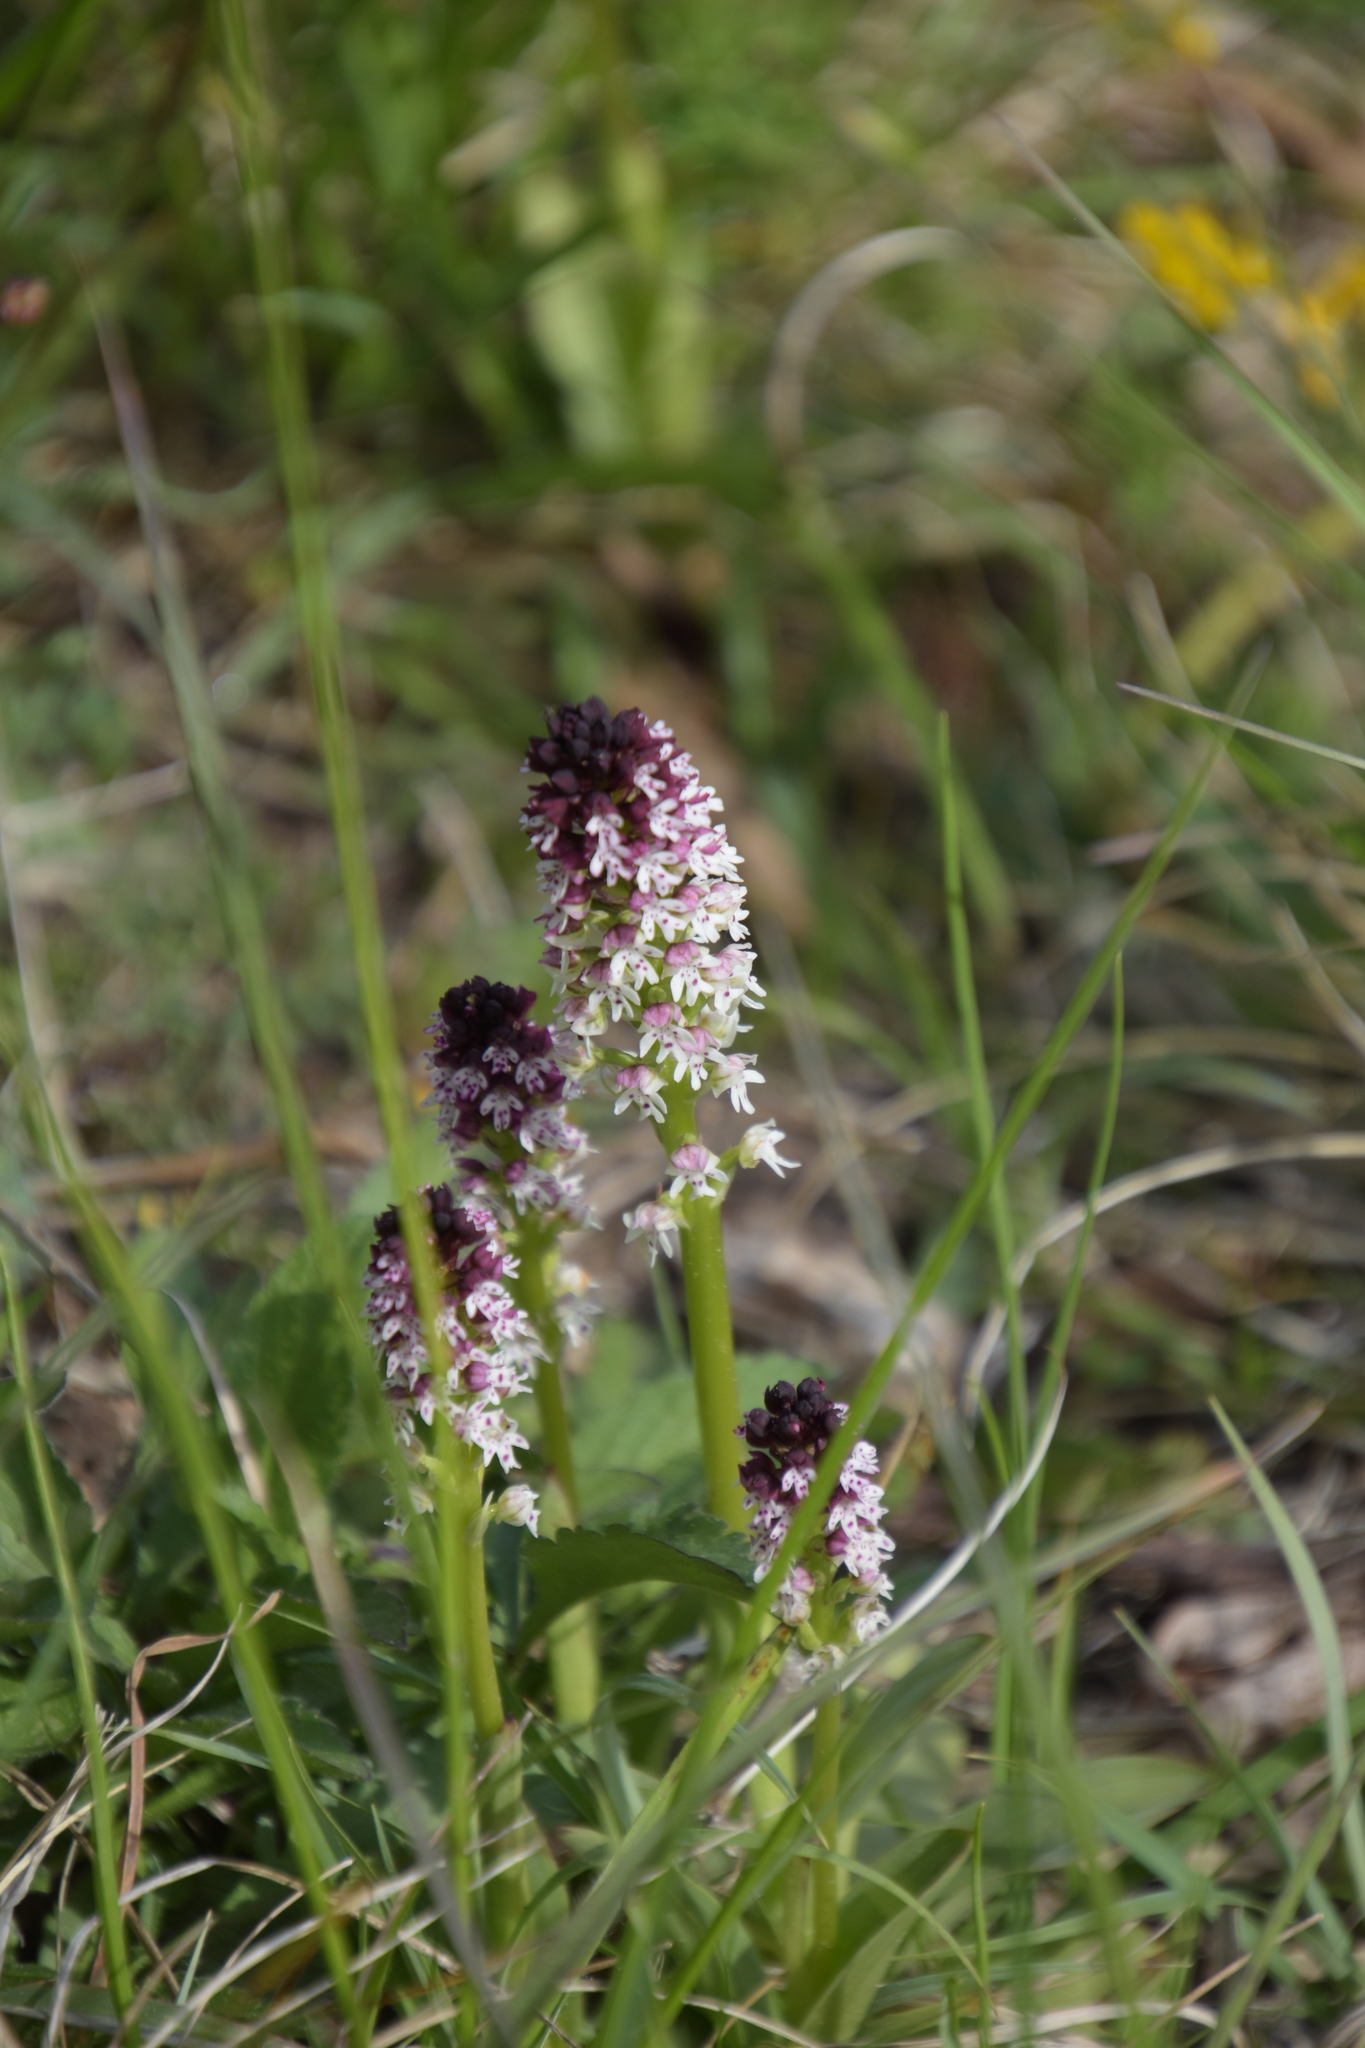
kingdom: Plantae
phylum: Tracheophyta
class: Liliopsida
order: Asparagales
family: Orchidaceae
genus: Neotinea
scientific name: Neotinea ustulata
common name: Burnt orchid
